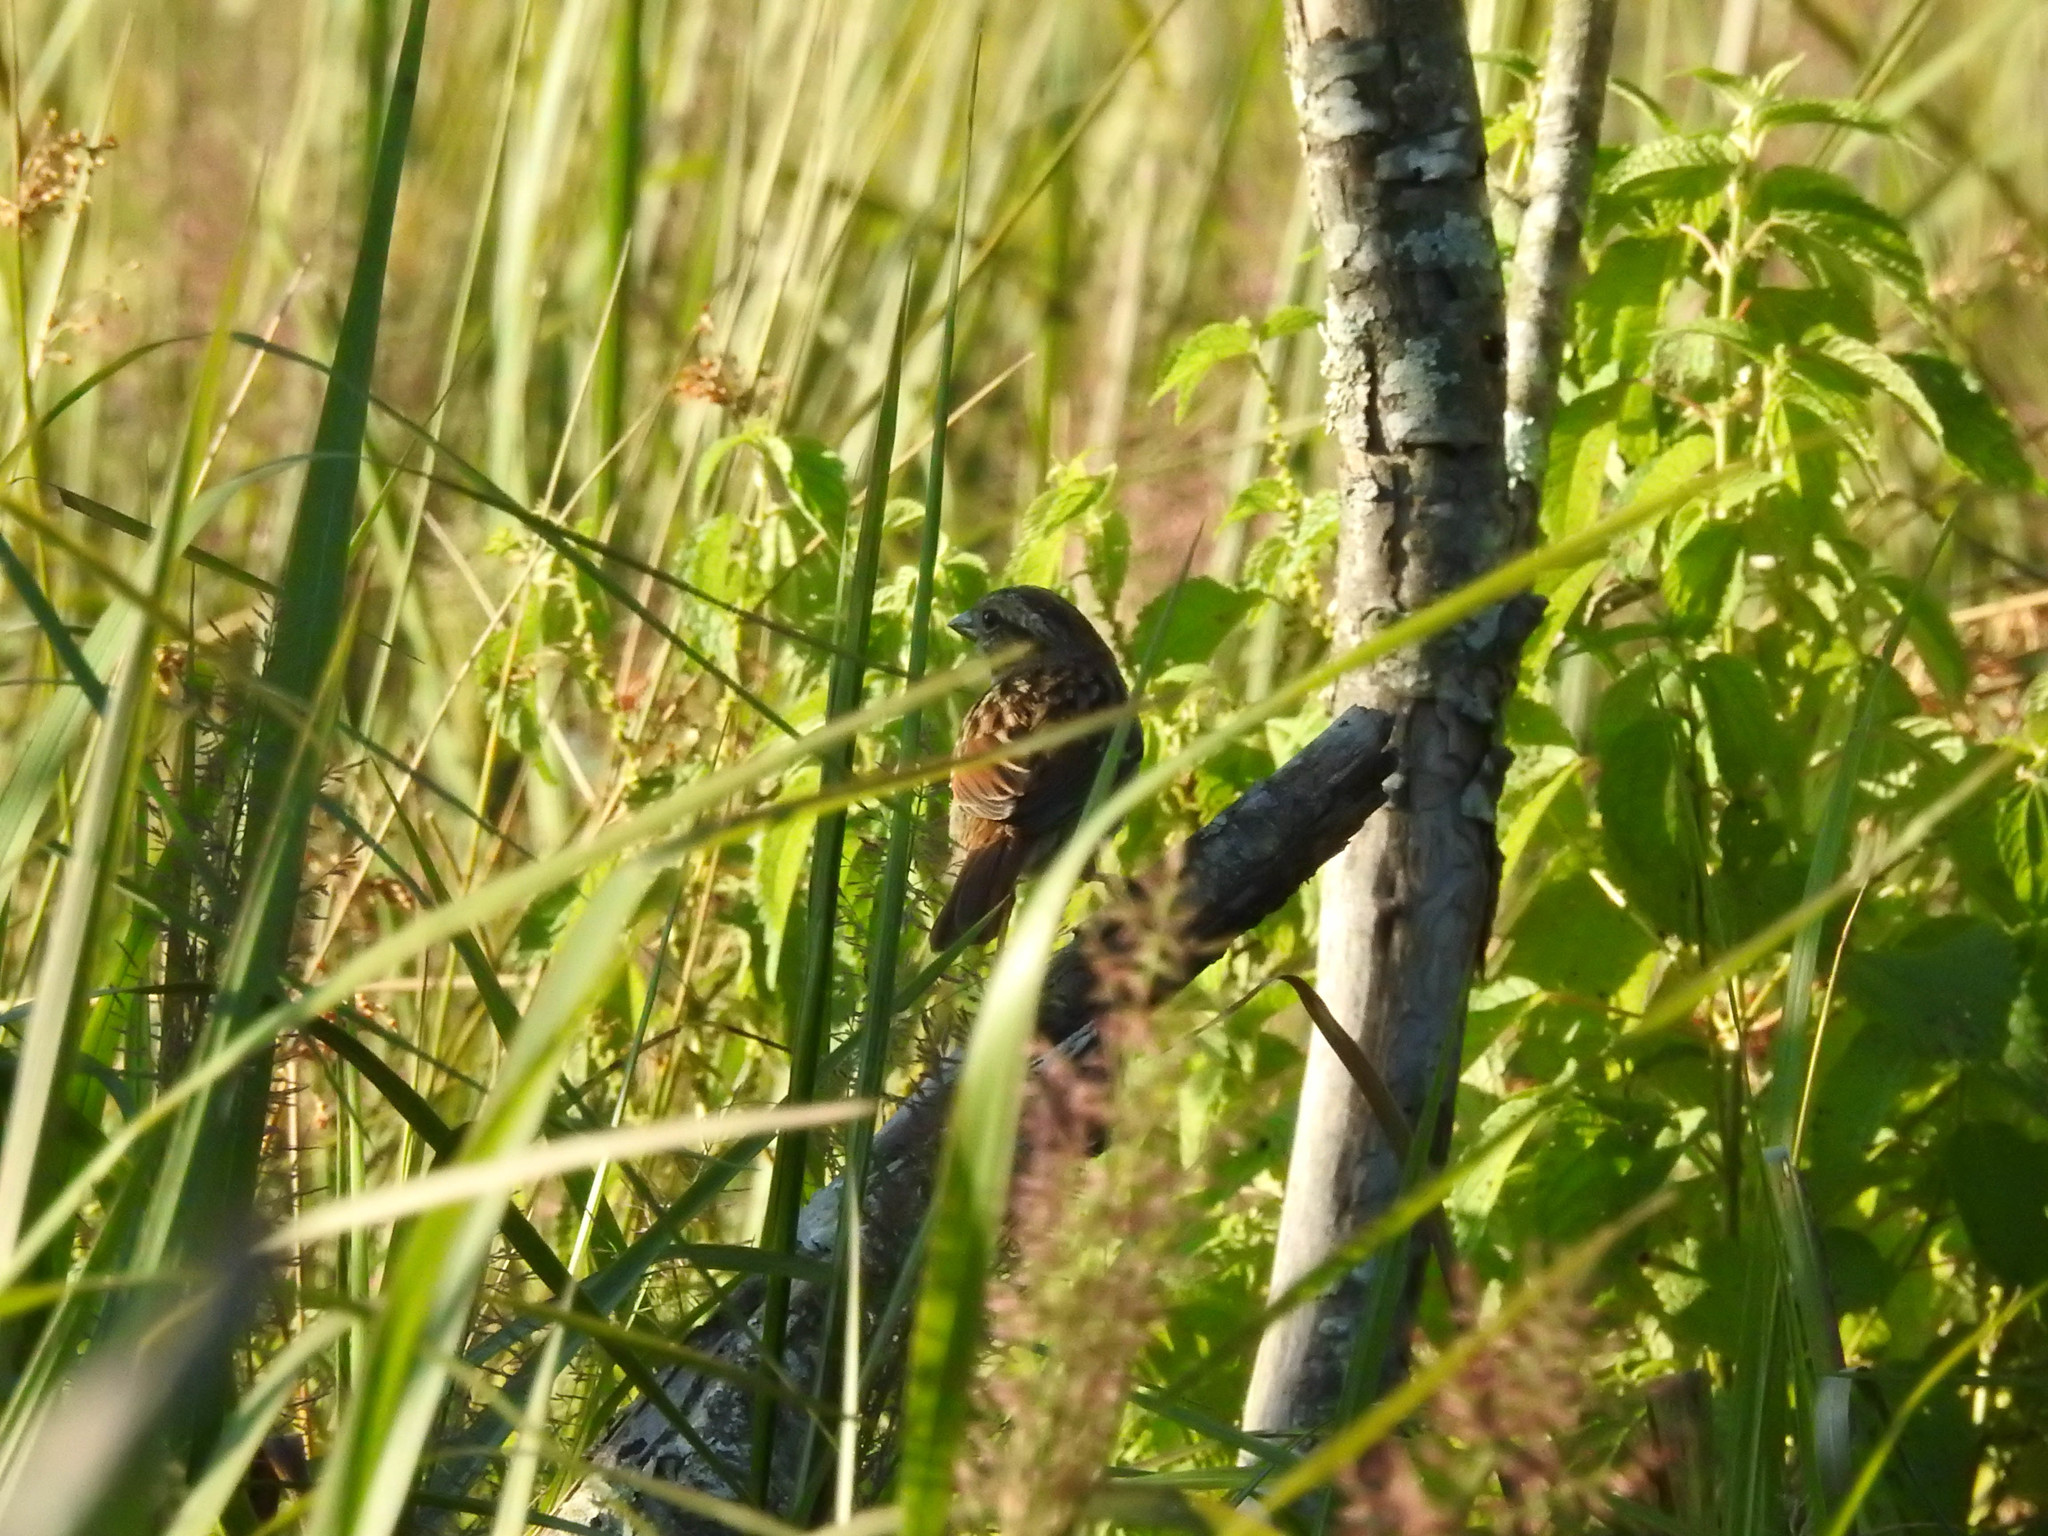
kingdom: Animalia
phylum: Chordata
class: Aves
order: Passeriformes
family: Passerellidae
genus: Melospiza
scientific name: Melospiza melodia
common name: Song sparrow
